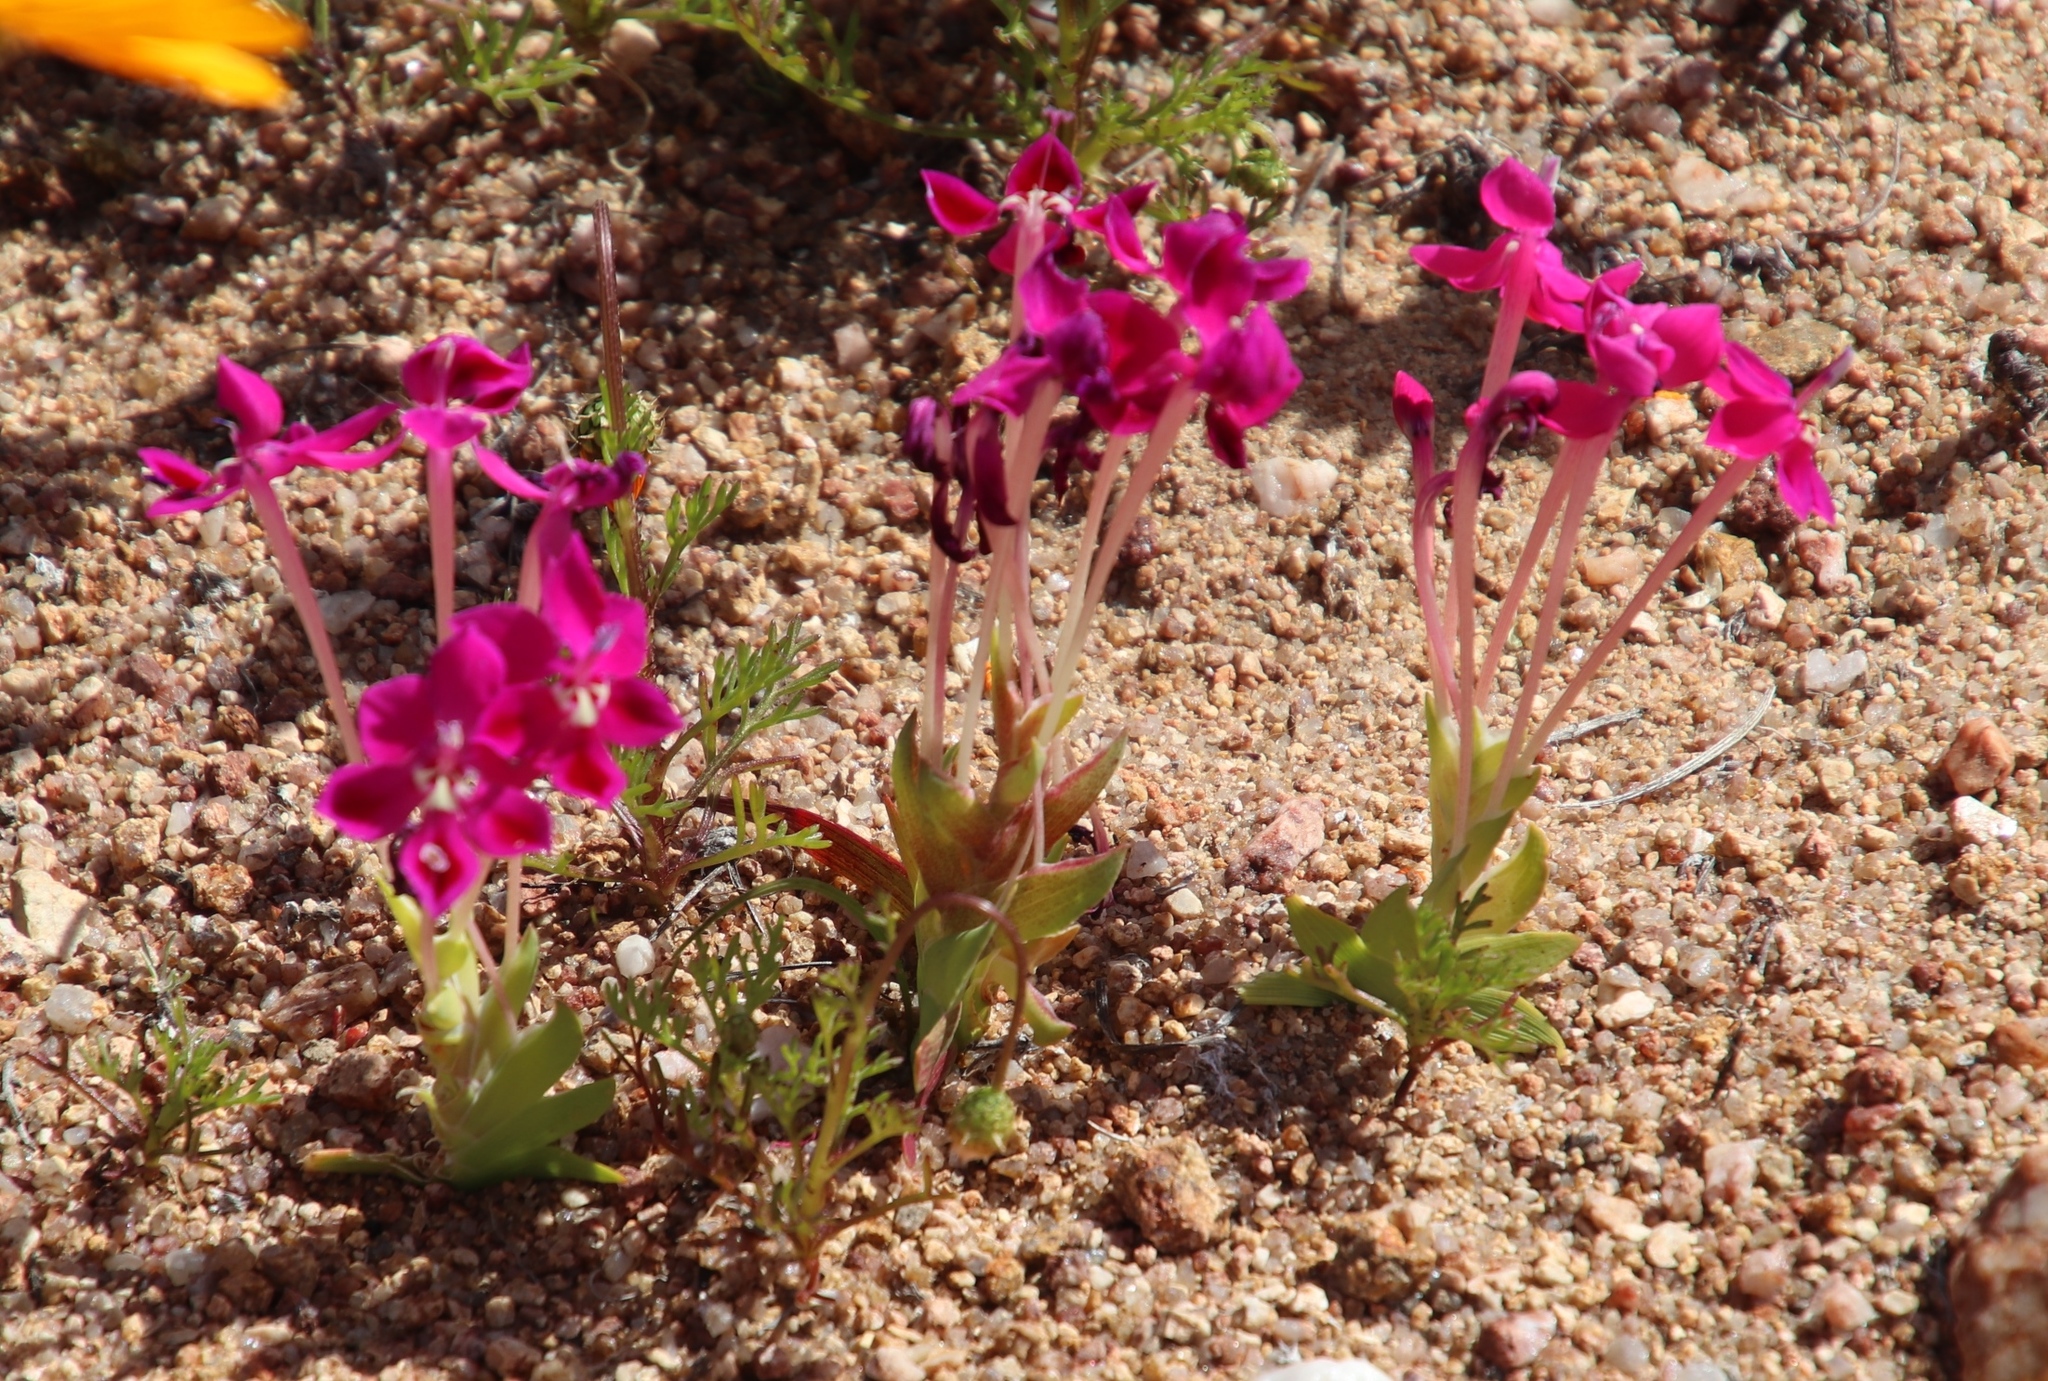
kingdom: Plantae
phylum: Tracheophyta
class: Liliopsida
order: Asparagales
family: Iridaceae
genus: Lapeirousia
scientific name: Lapeirousia silenoides
